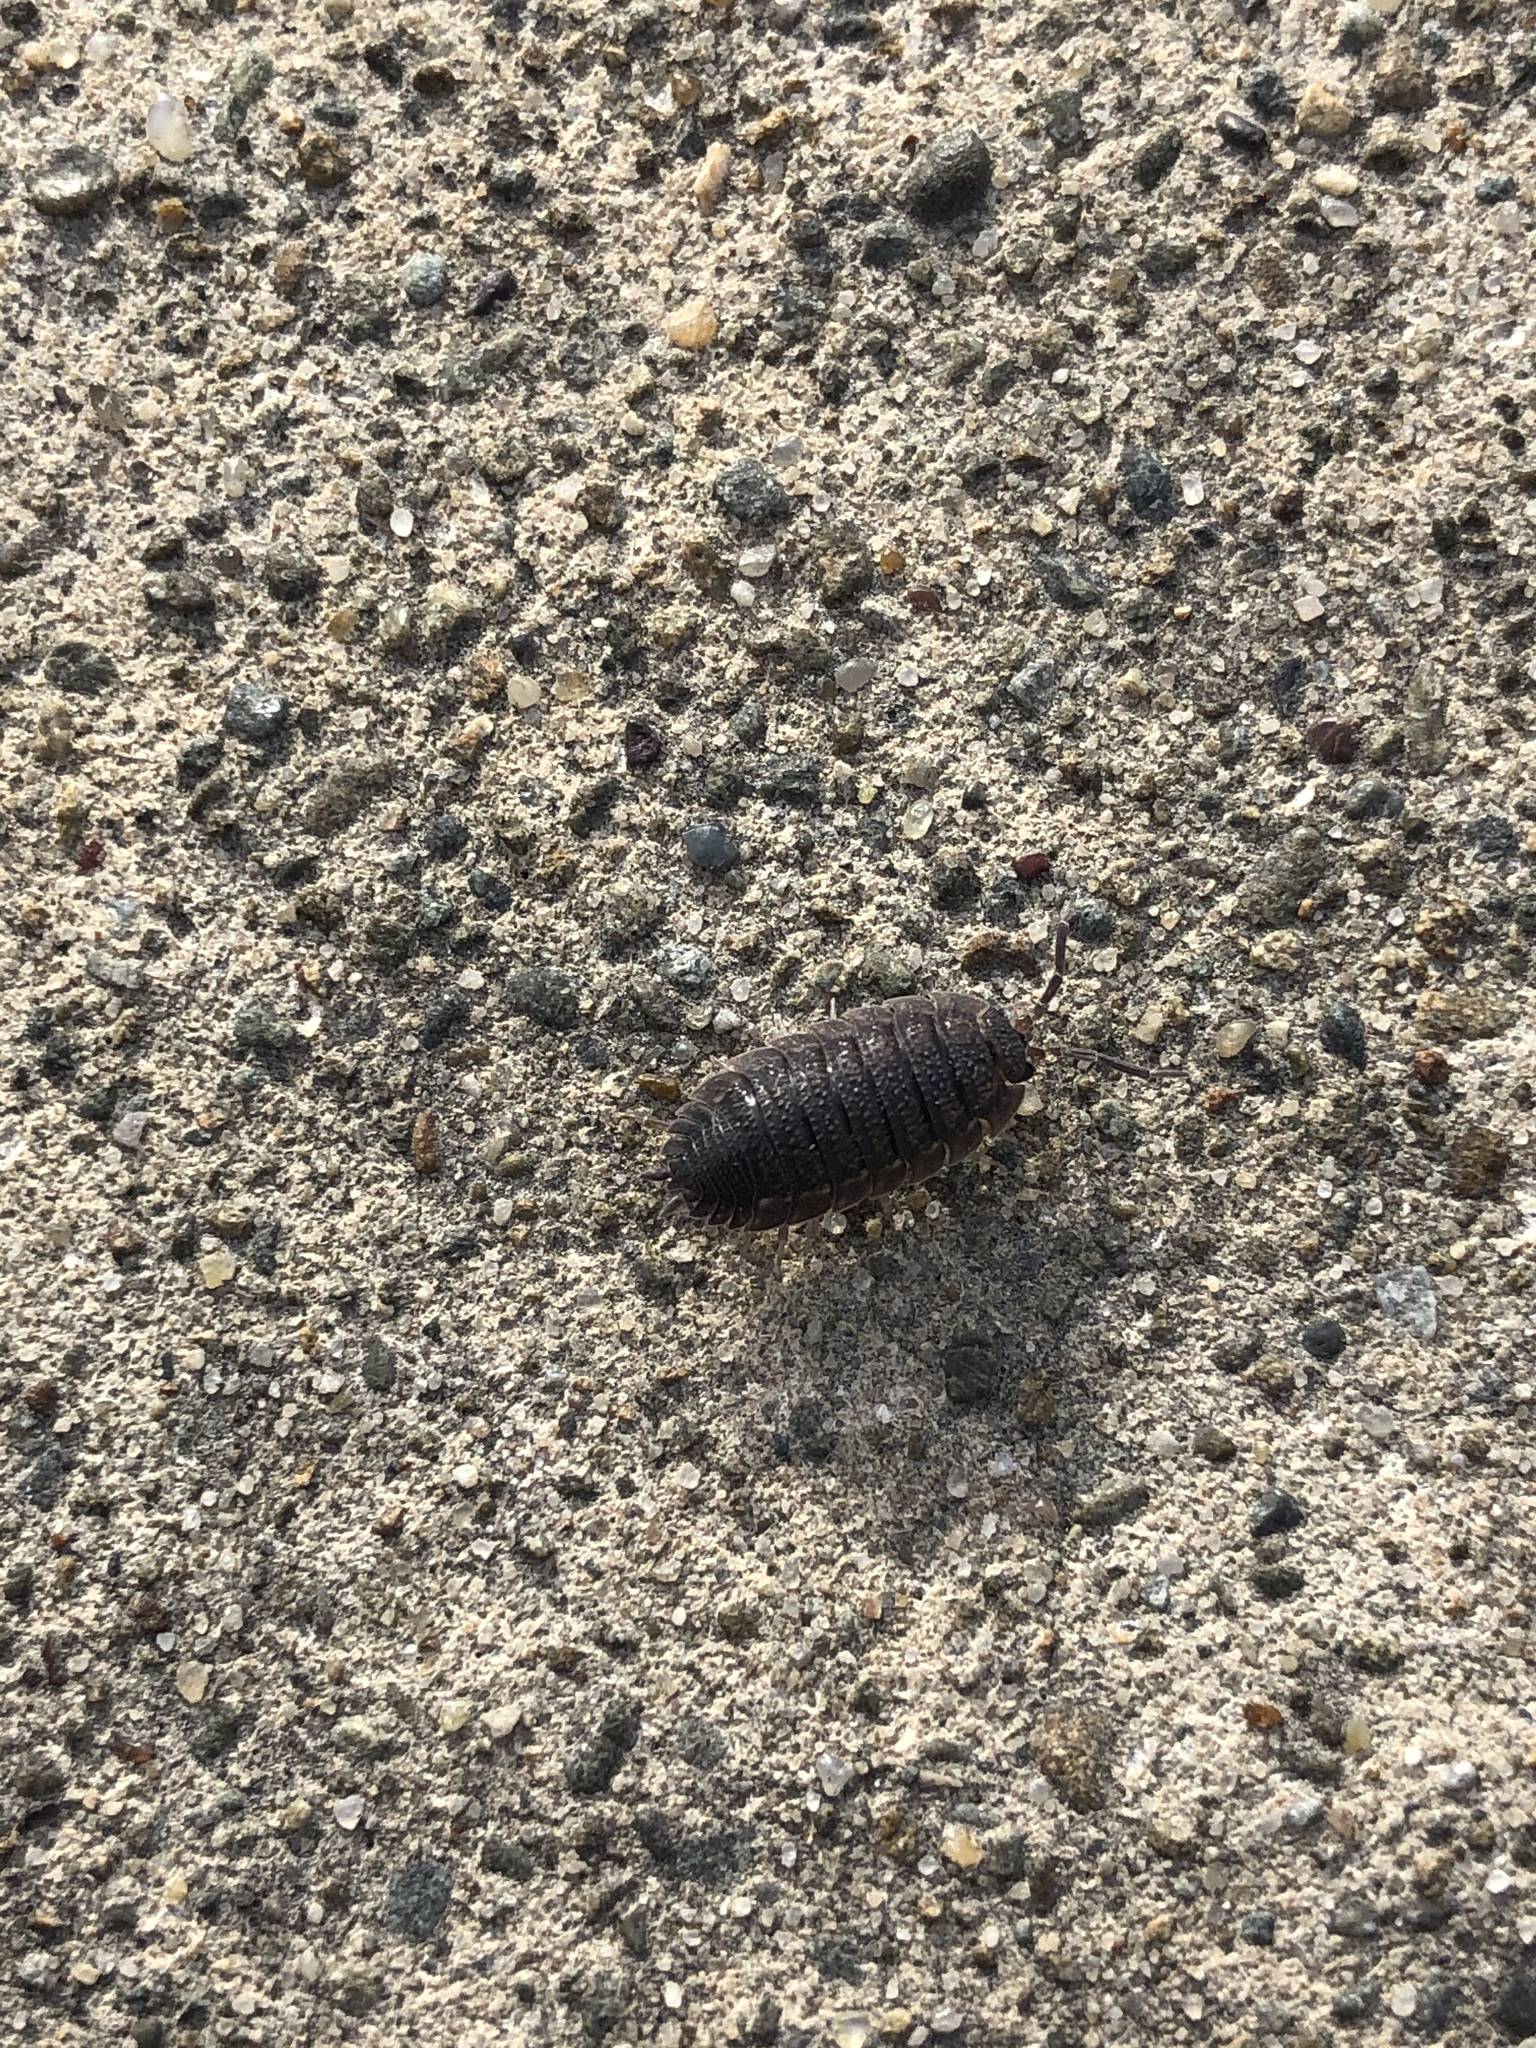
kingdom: Animalia
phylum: Arthropoda
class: Malacostraca
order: Isopoda
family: Porcellionidae
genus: Porcellio
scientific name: Porcellio scaber
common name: Common rough woodlouse
